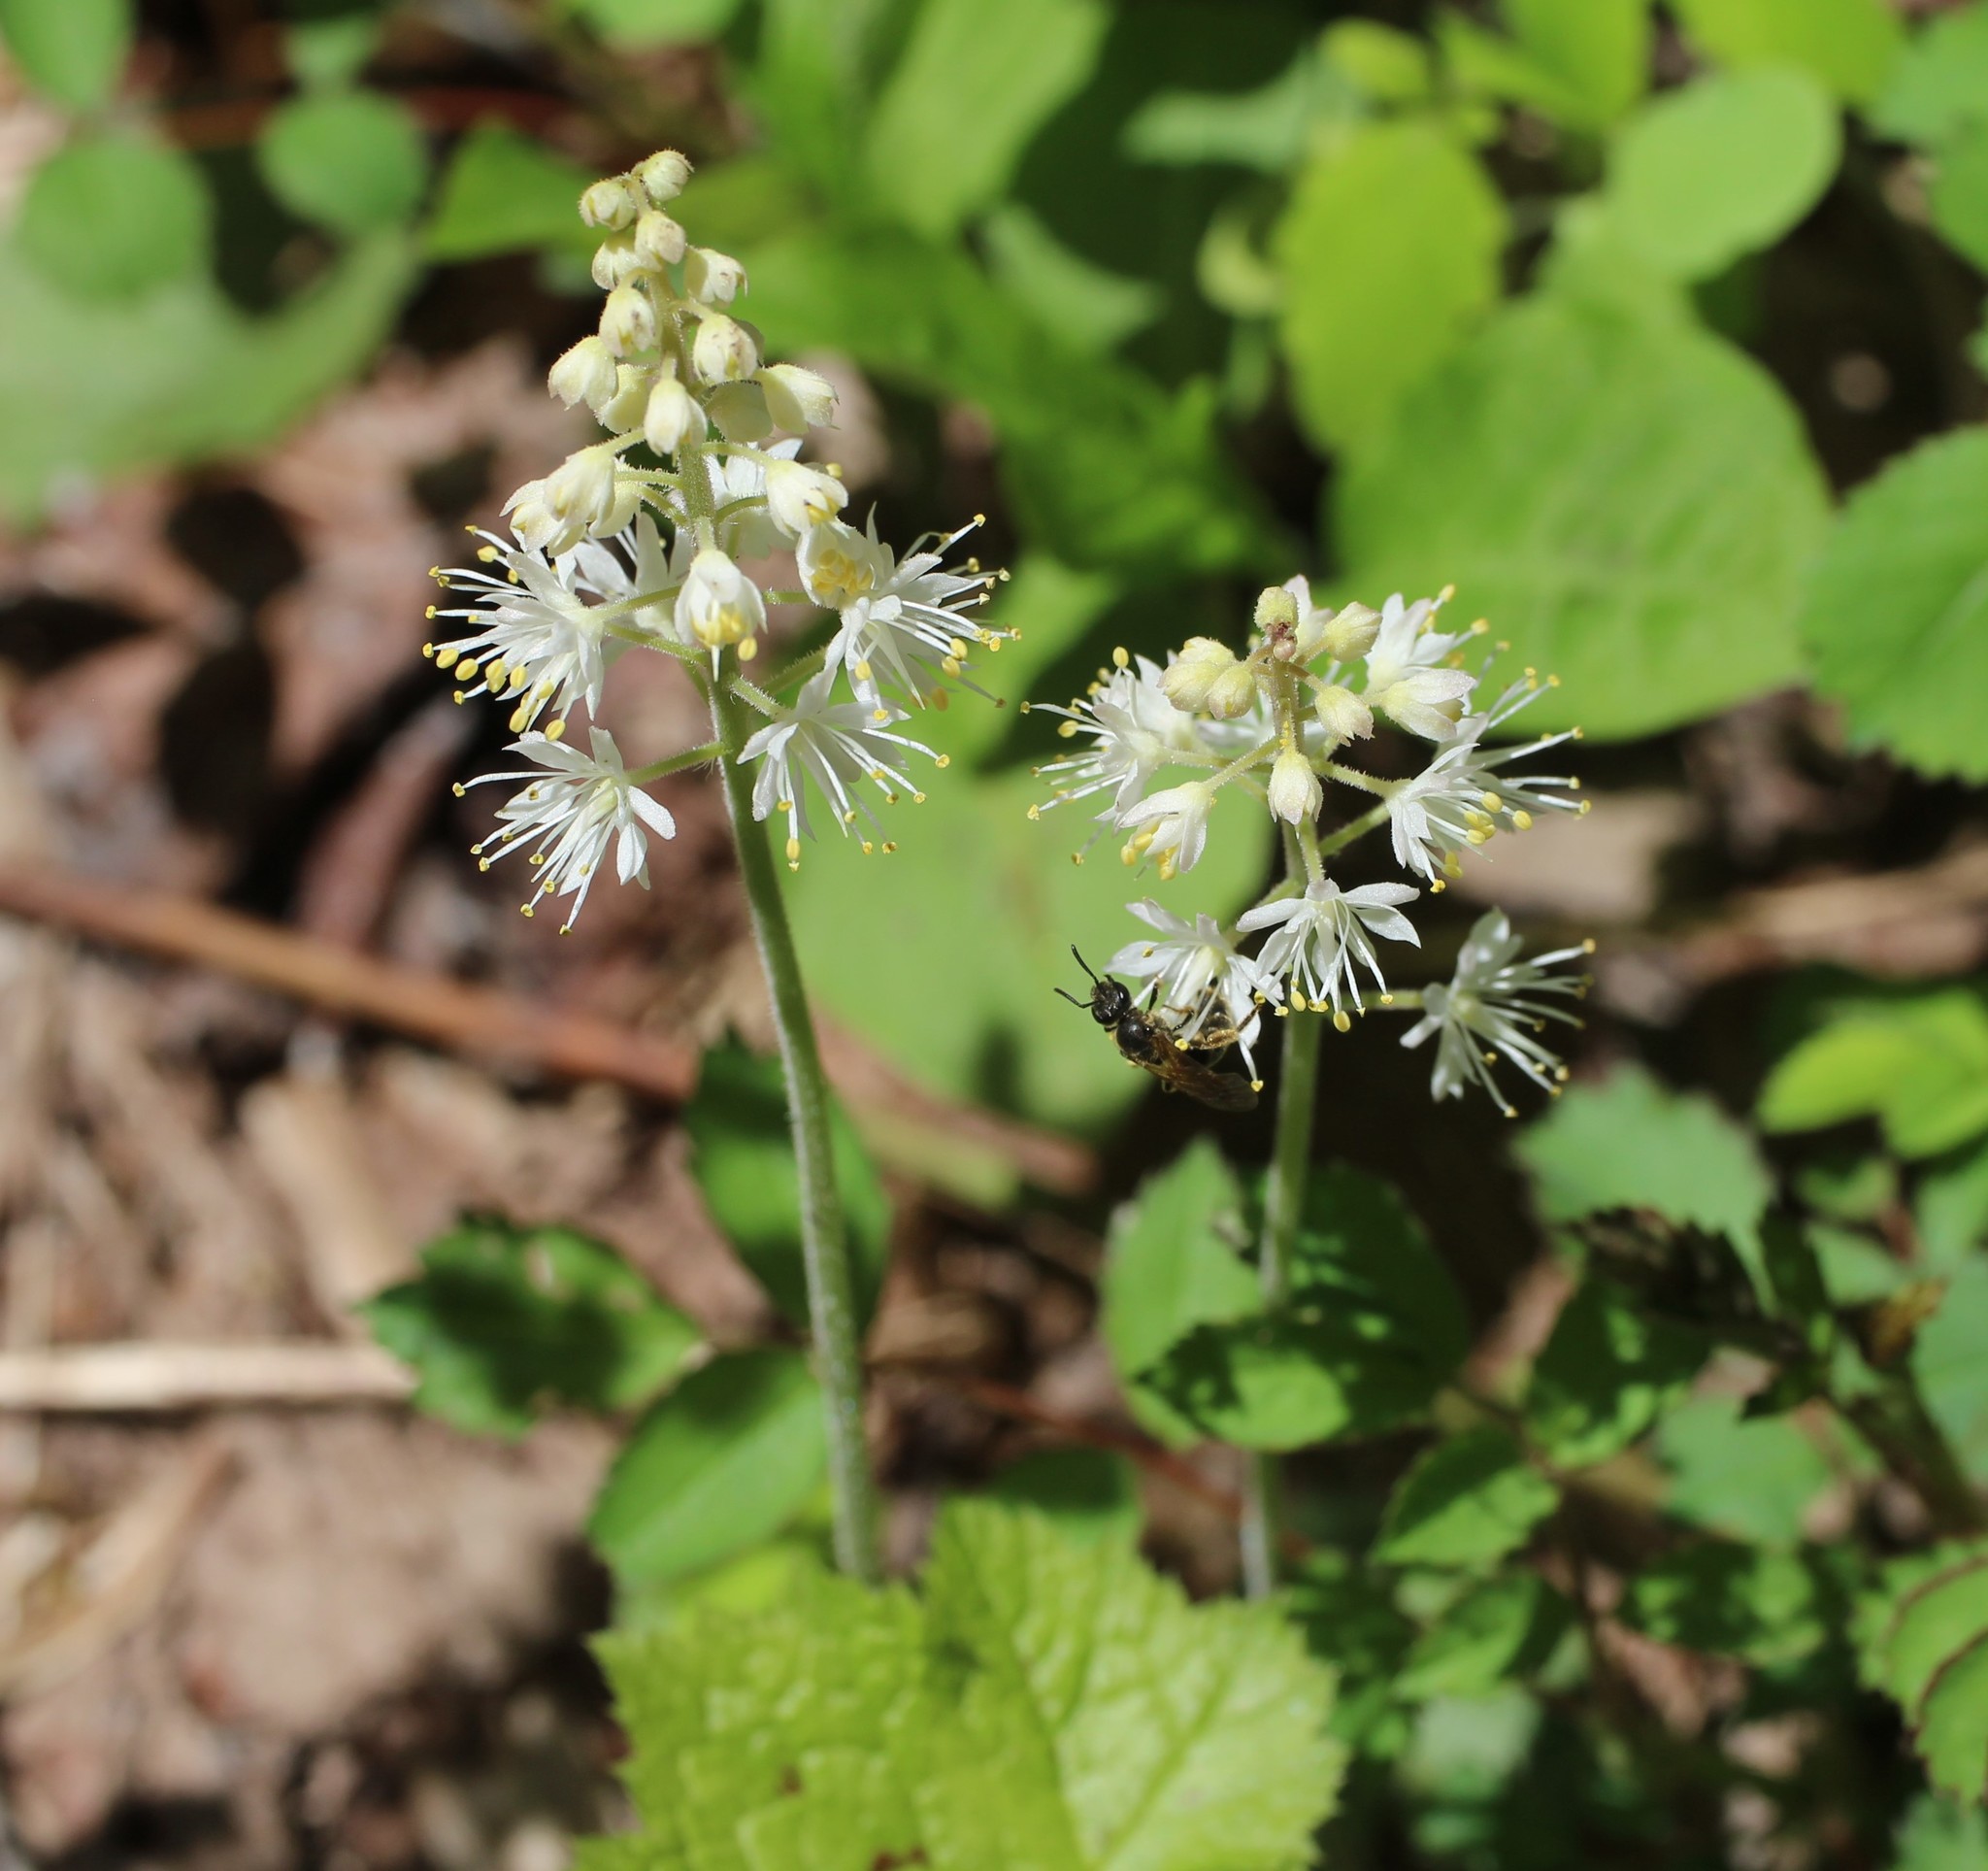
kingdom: Plantae
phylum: Tracheophyta
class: Magnoliopsida
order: Saxifragales
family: Saxifragaceae
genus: Tiarella
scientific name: Tiarella stolonifera
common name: Stoloniferous foamflower
